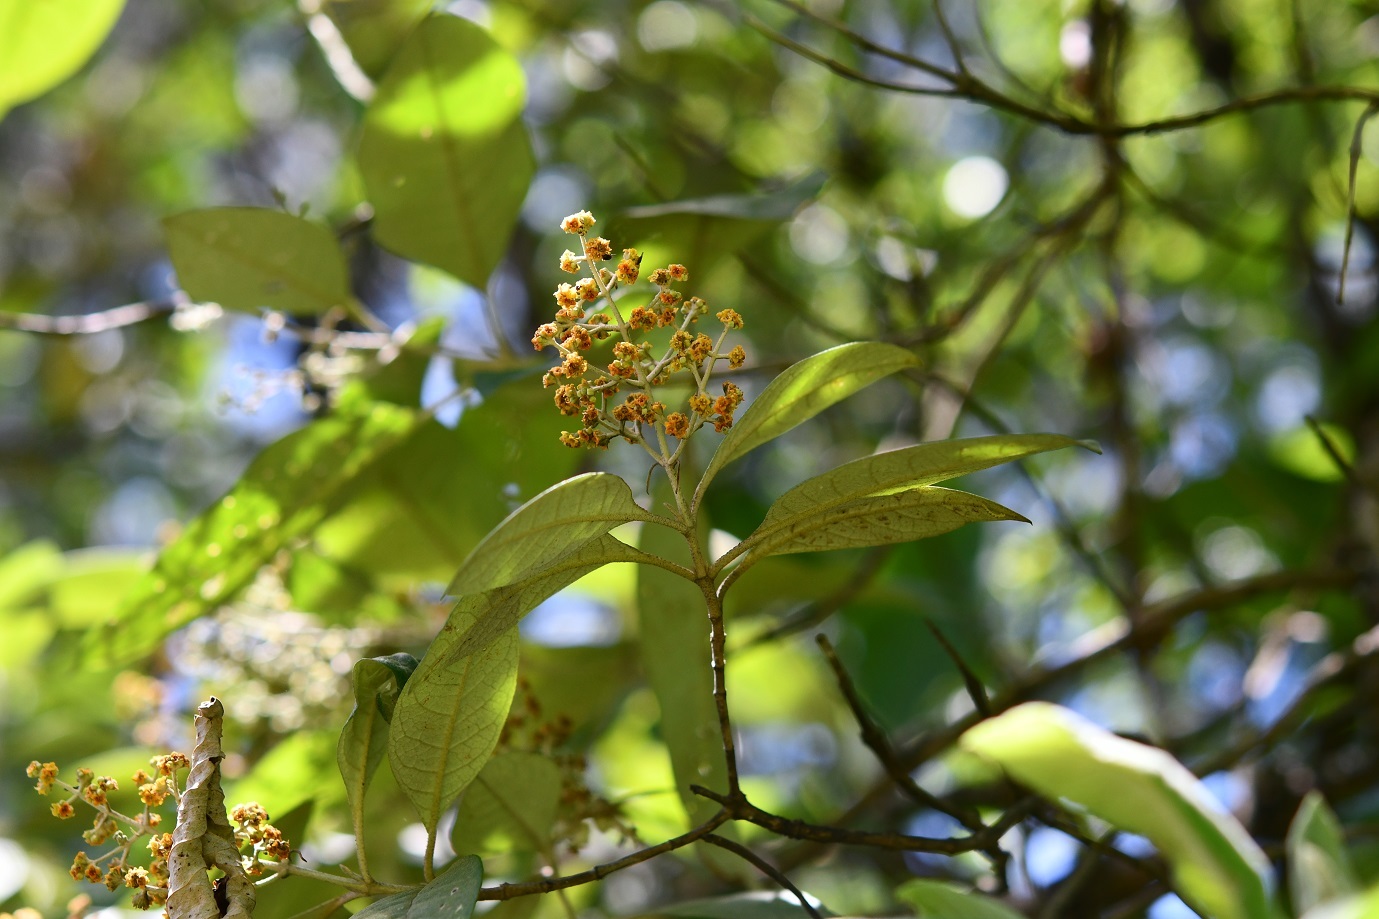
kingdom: Plantae
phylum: Tracheophyta
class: Magnoliopsida
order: Lamiales
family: Scrophulariaceae
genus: Buddleja
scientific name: Buddleja cordata
